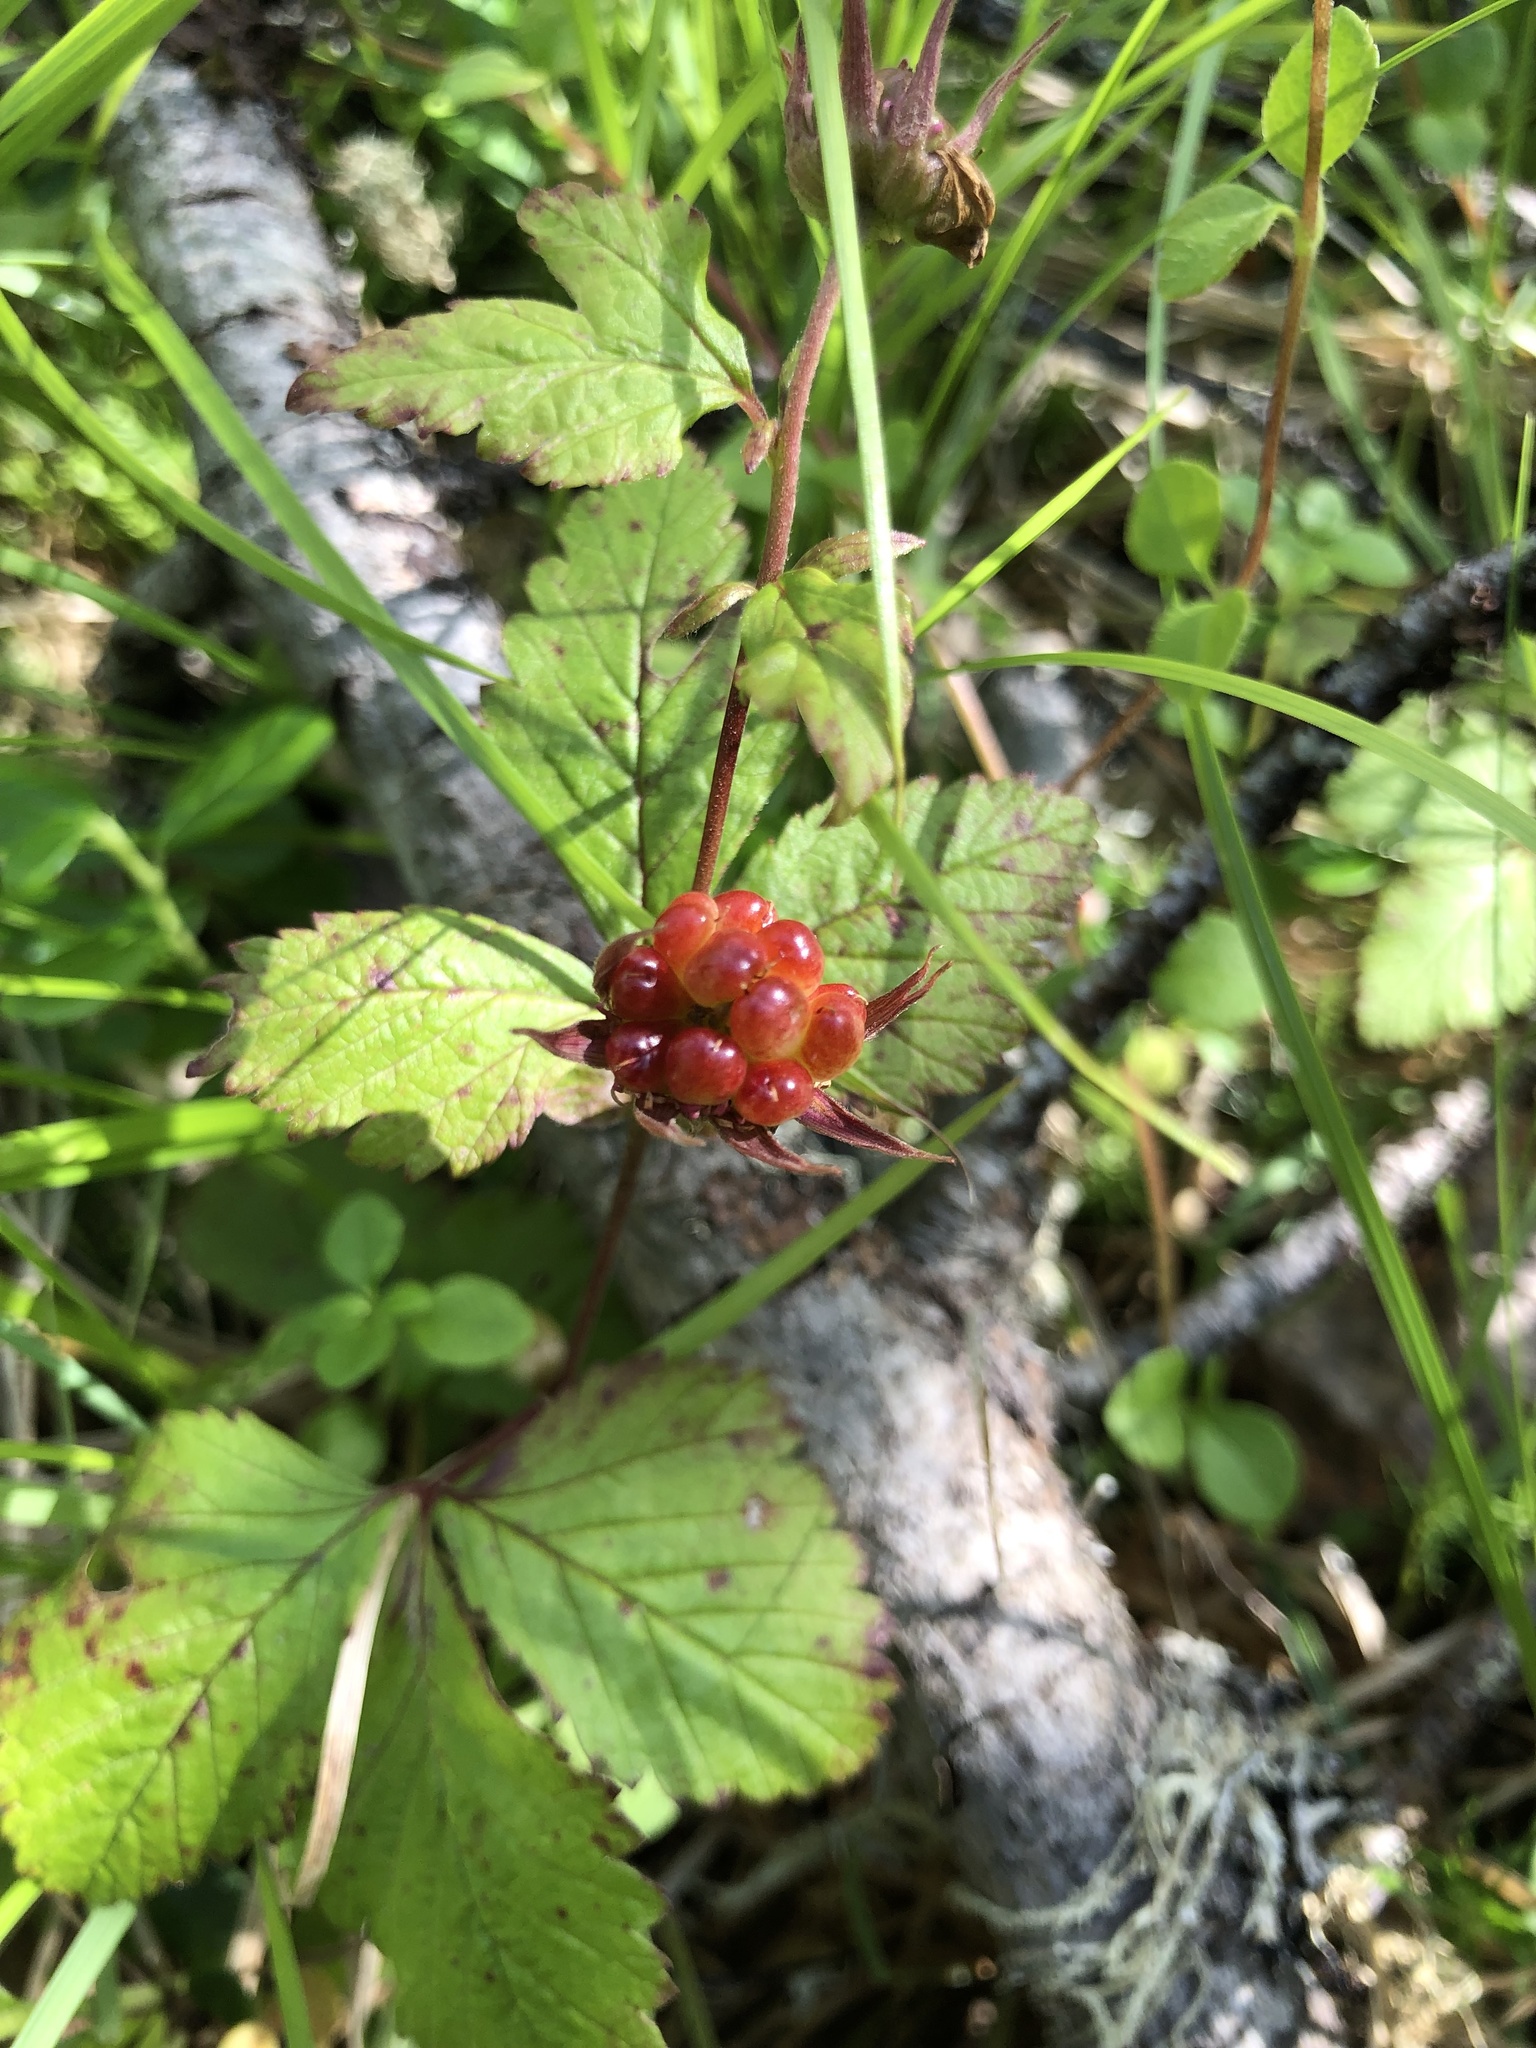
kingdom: Plantae
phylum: Tracheophyta
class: Magnoliopsida
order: Rosales
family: Rosaceae
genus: Rubus
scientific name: Rubus arcticus
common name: Arctic bramble
